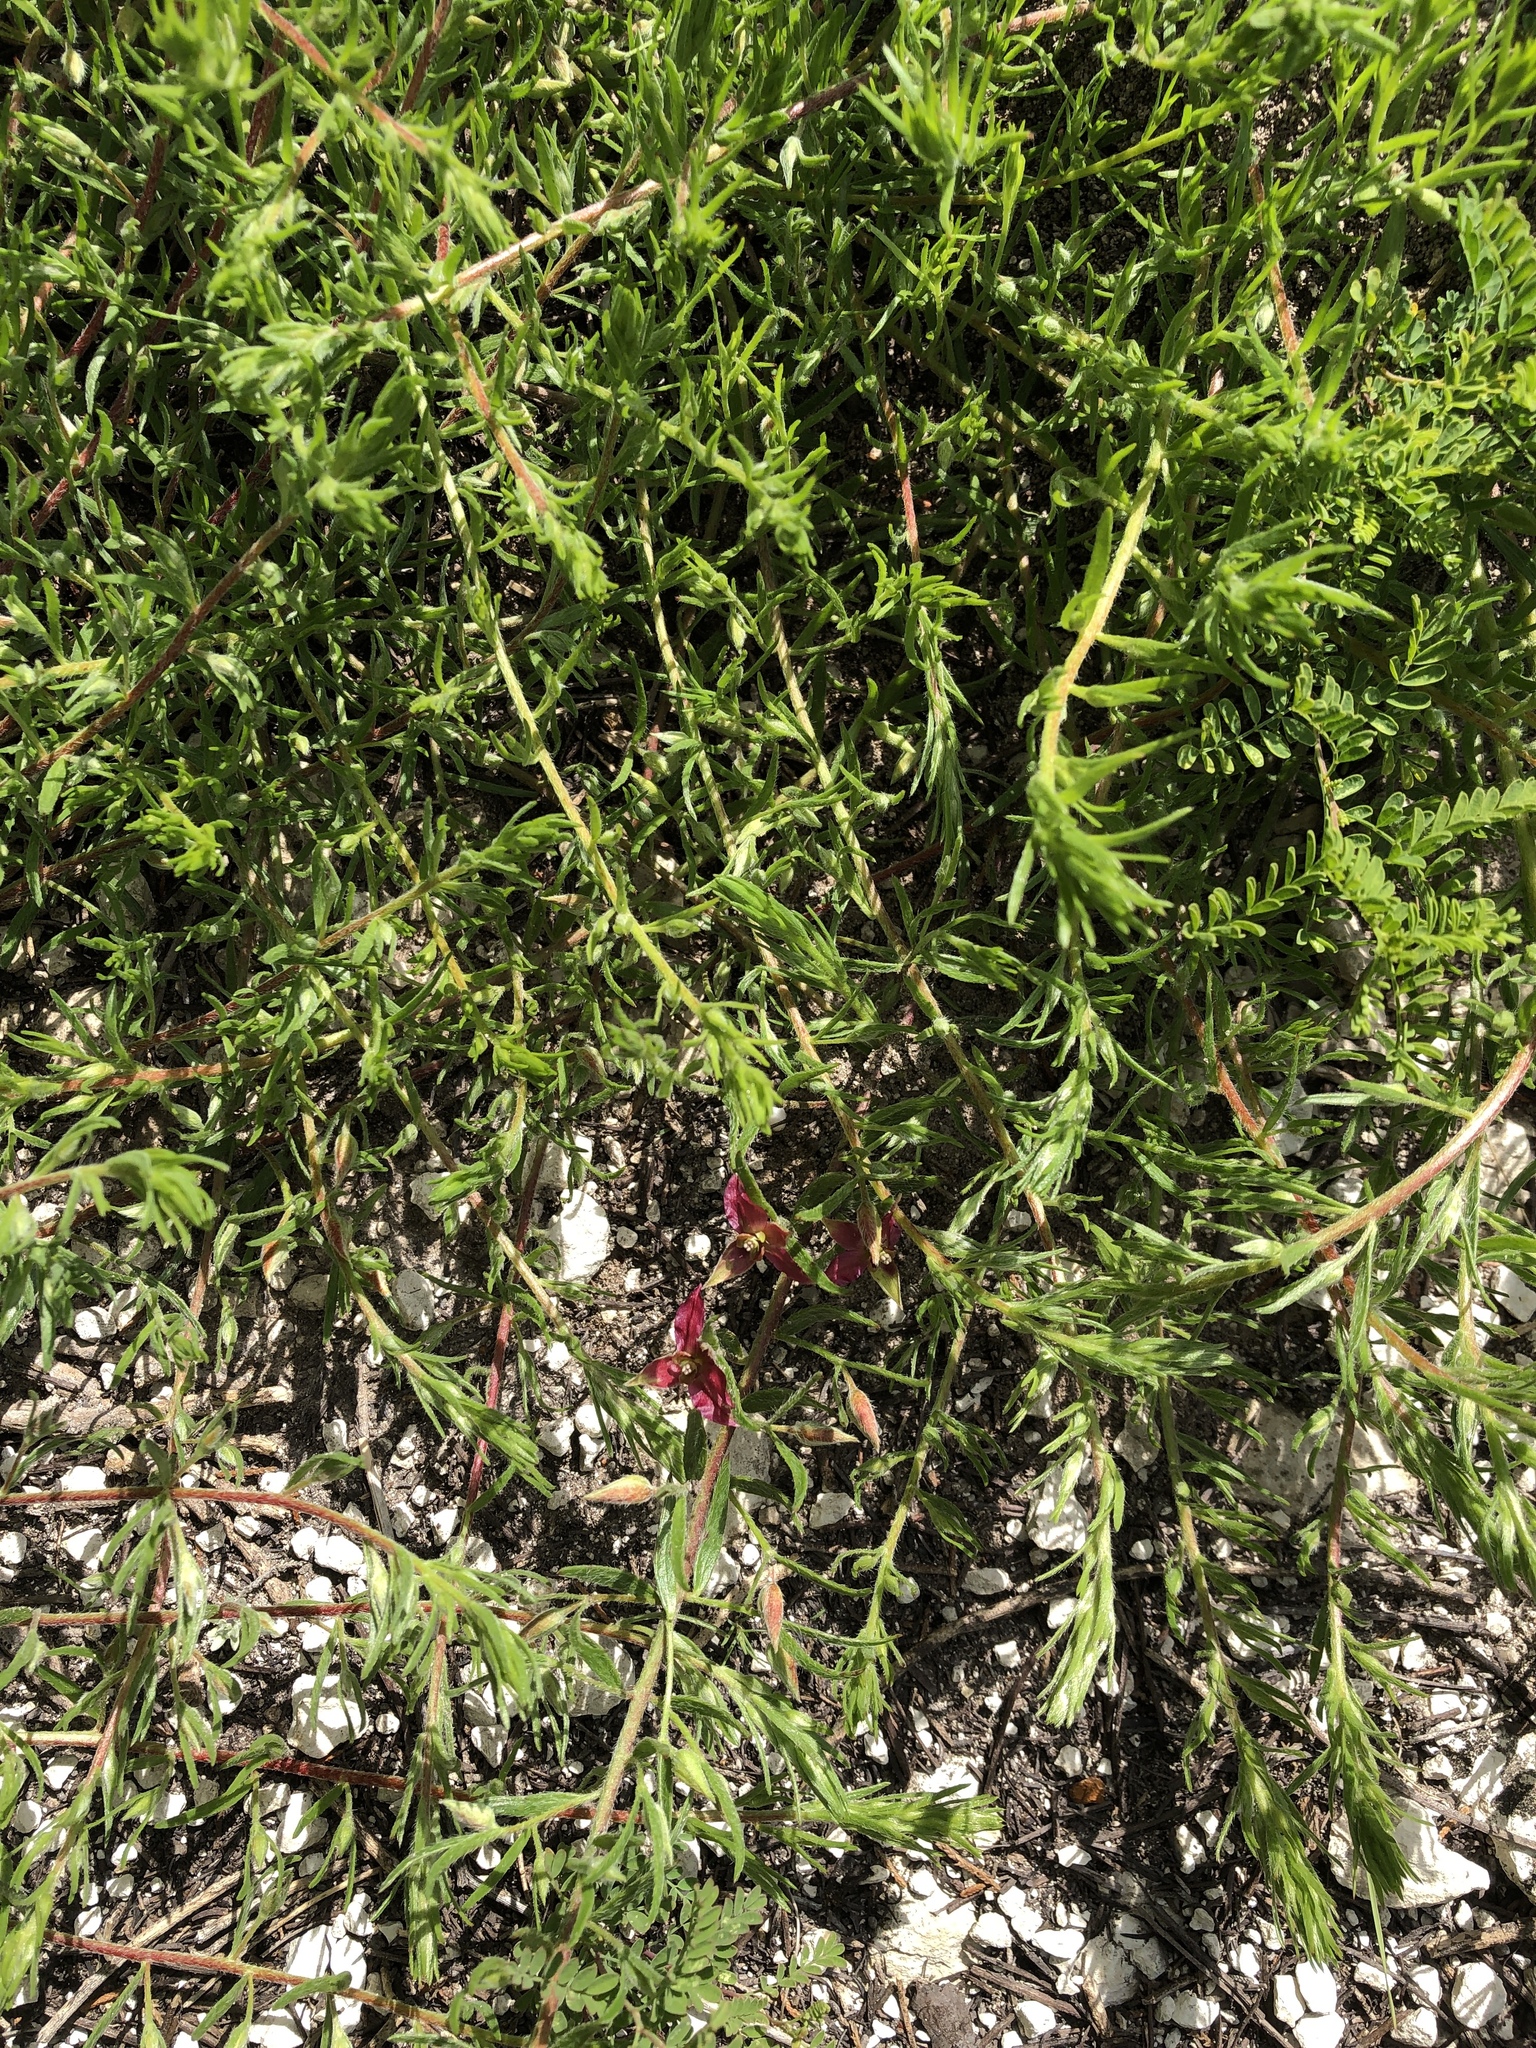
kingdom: Plantae
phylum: Tracheophyta
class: Magnoliopsida
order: Zygophyllales
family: Krameriaceae
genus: Krameria
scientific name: Krameria lanceolata
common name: Ratany
